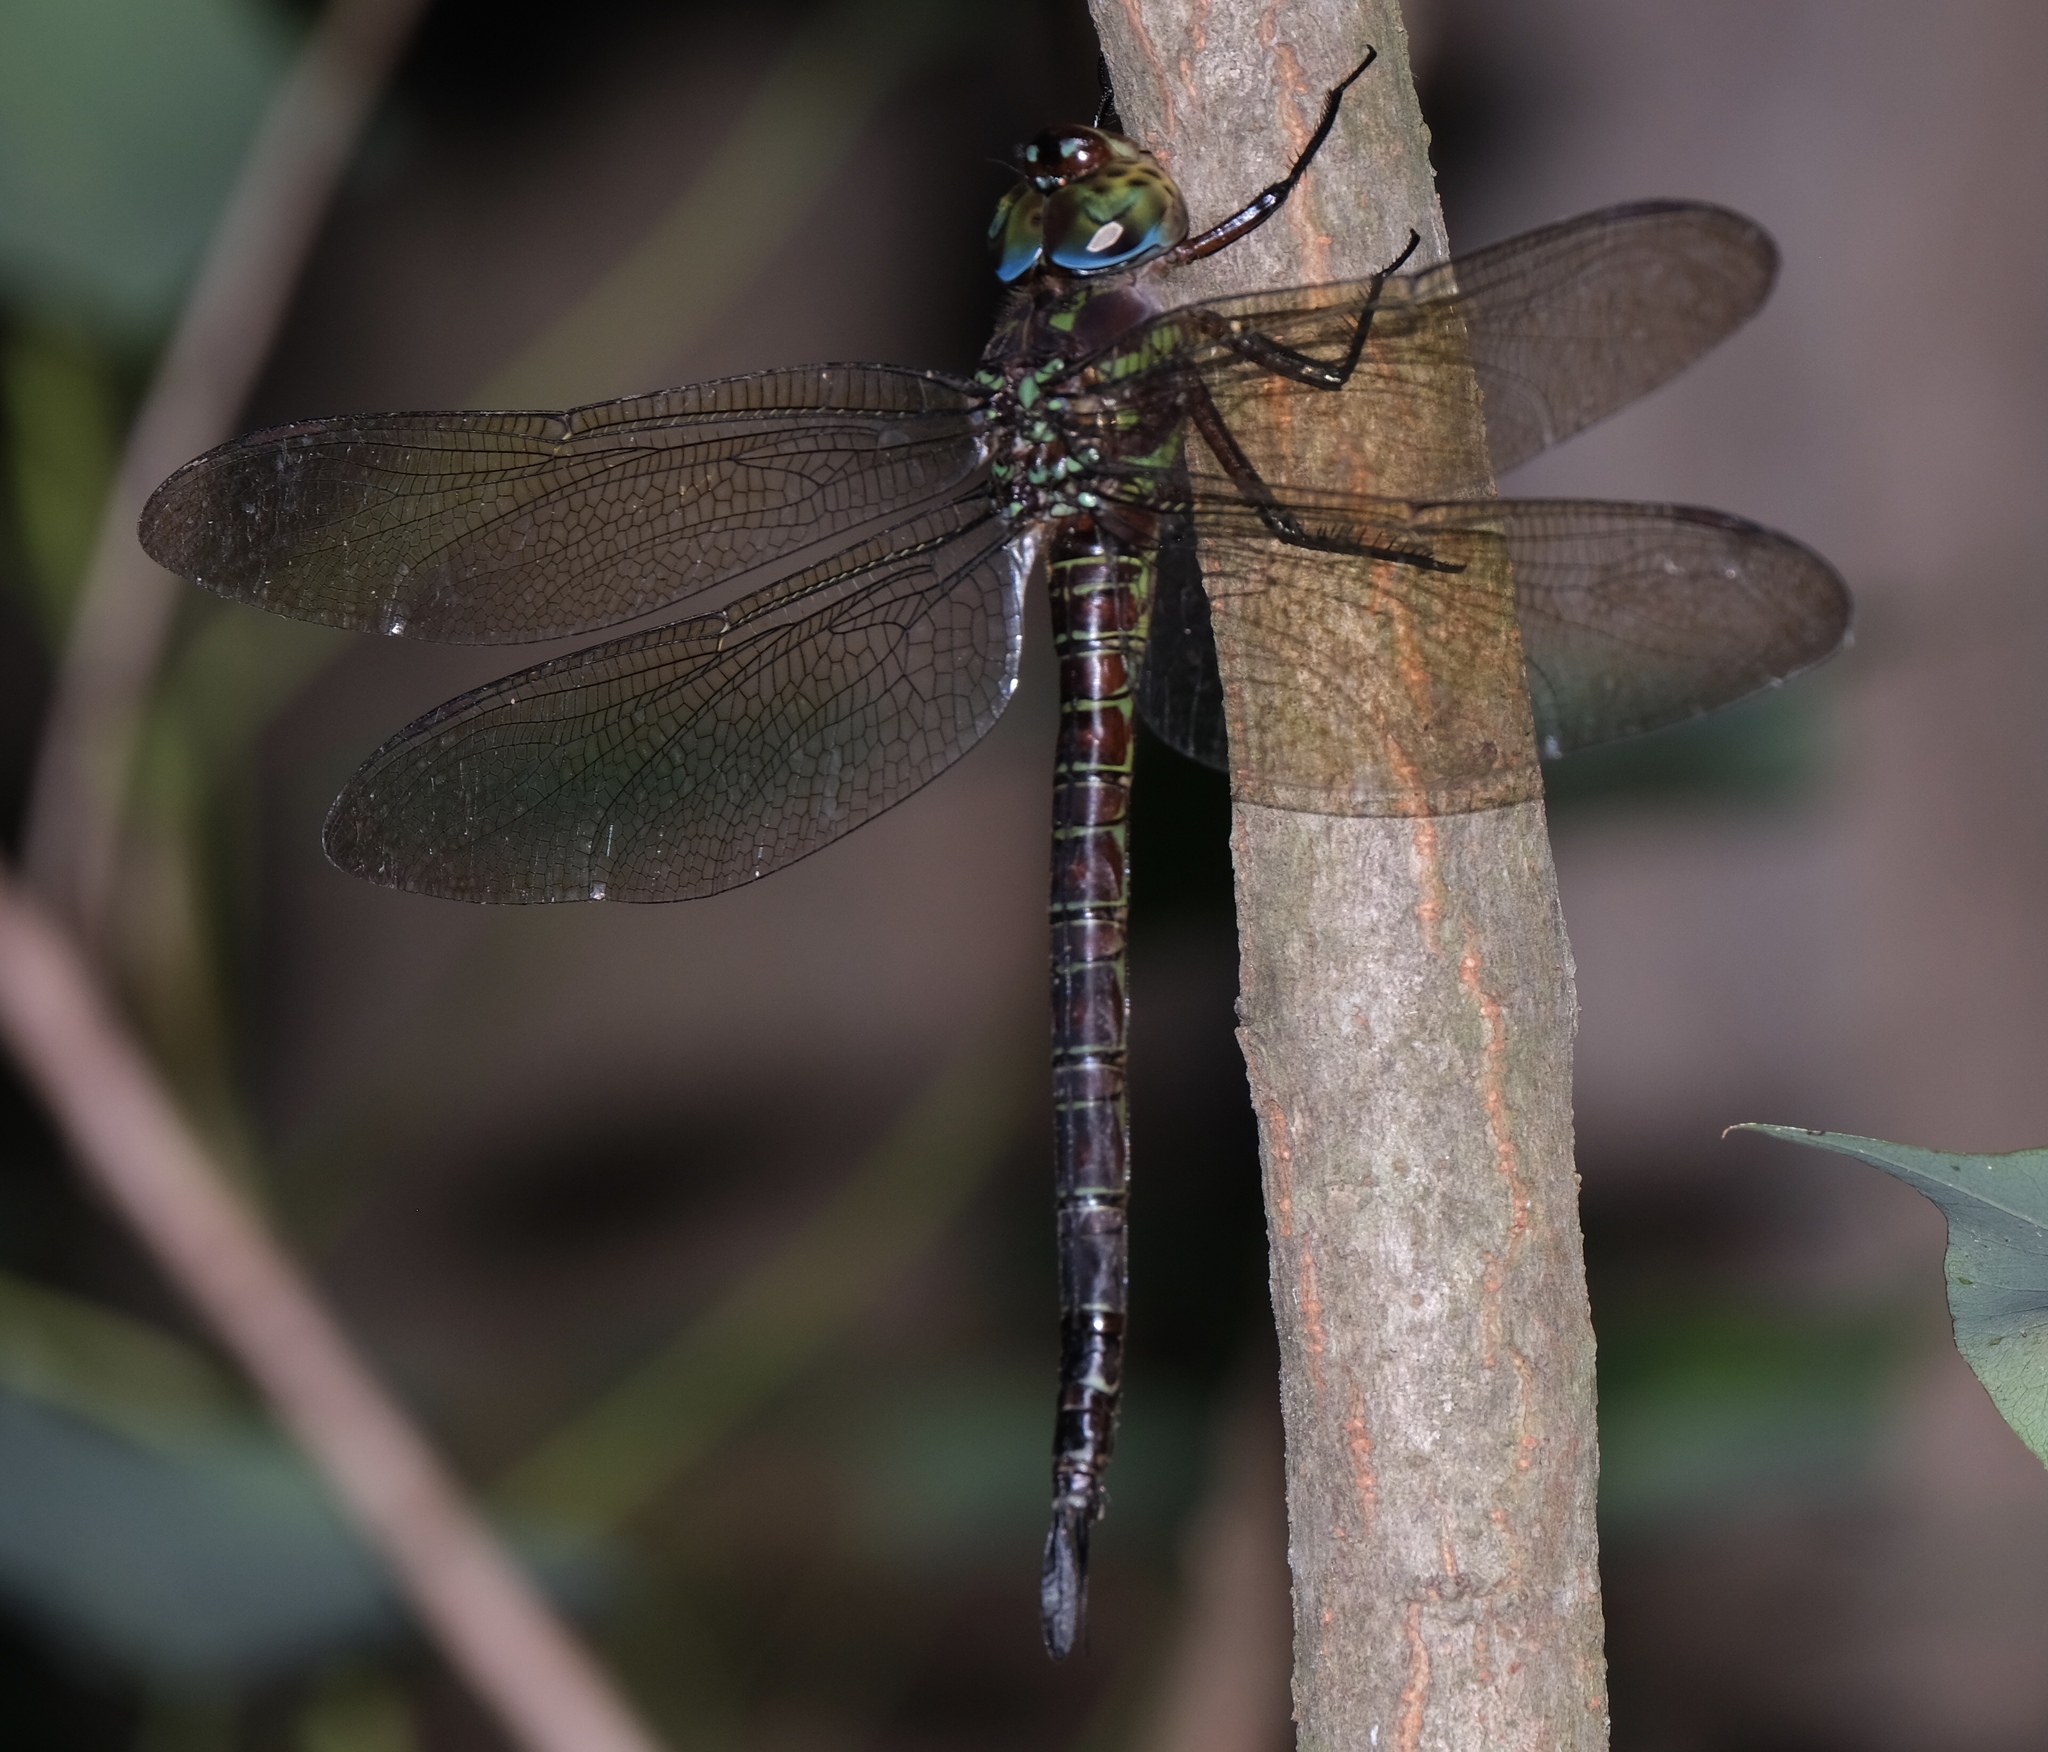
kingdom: Animalia
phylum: Arthropoda
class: Insecta
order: Odonata
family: Aeshnidae
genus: Epiaeschna
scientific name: Epiaeschna heros
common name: Swamp darner
